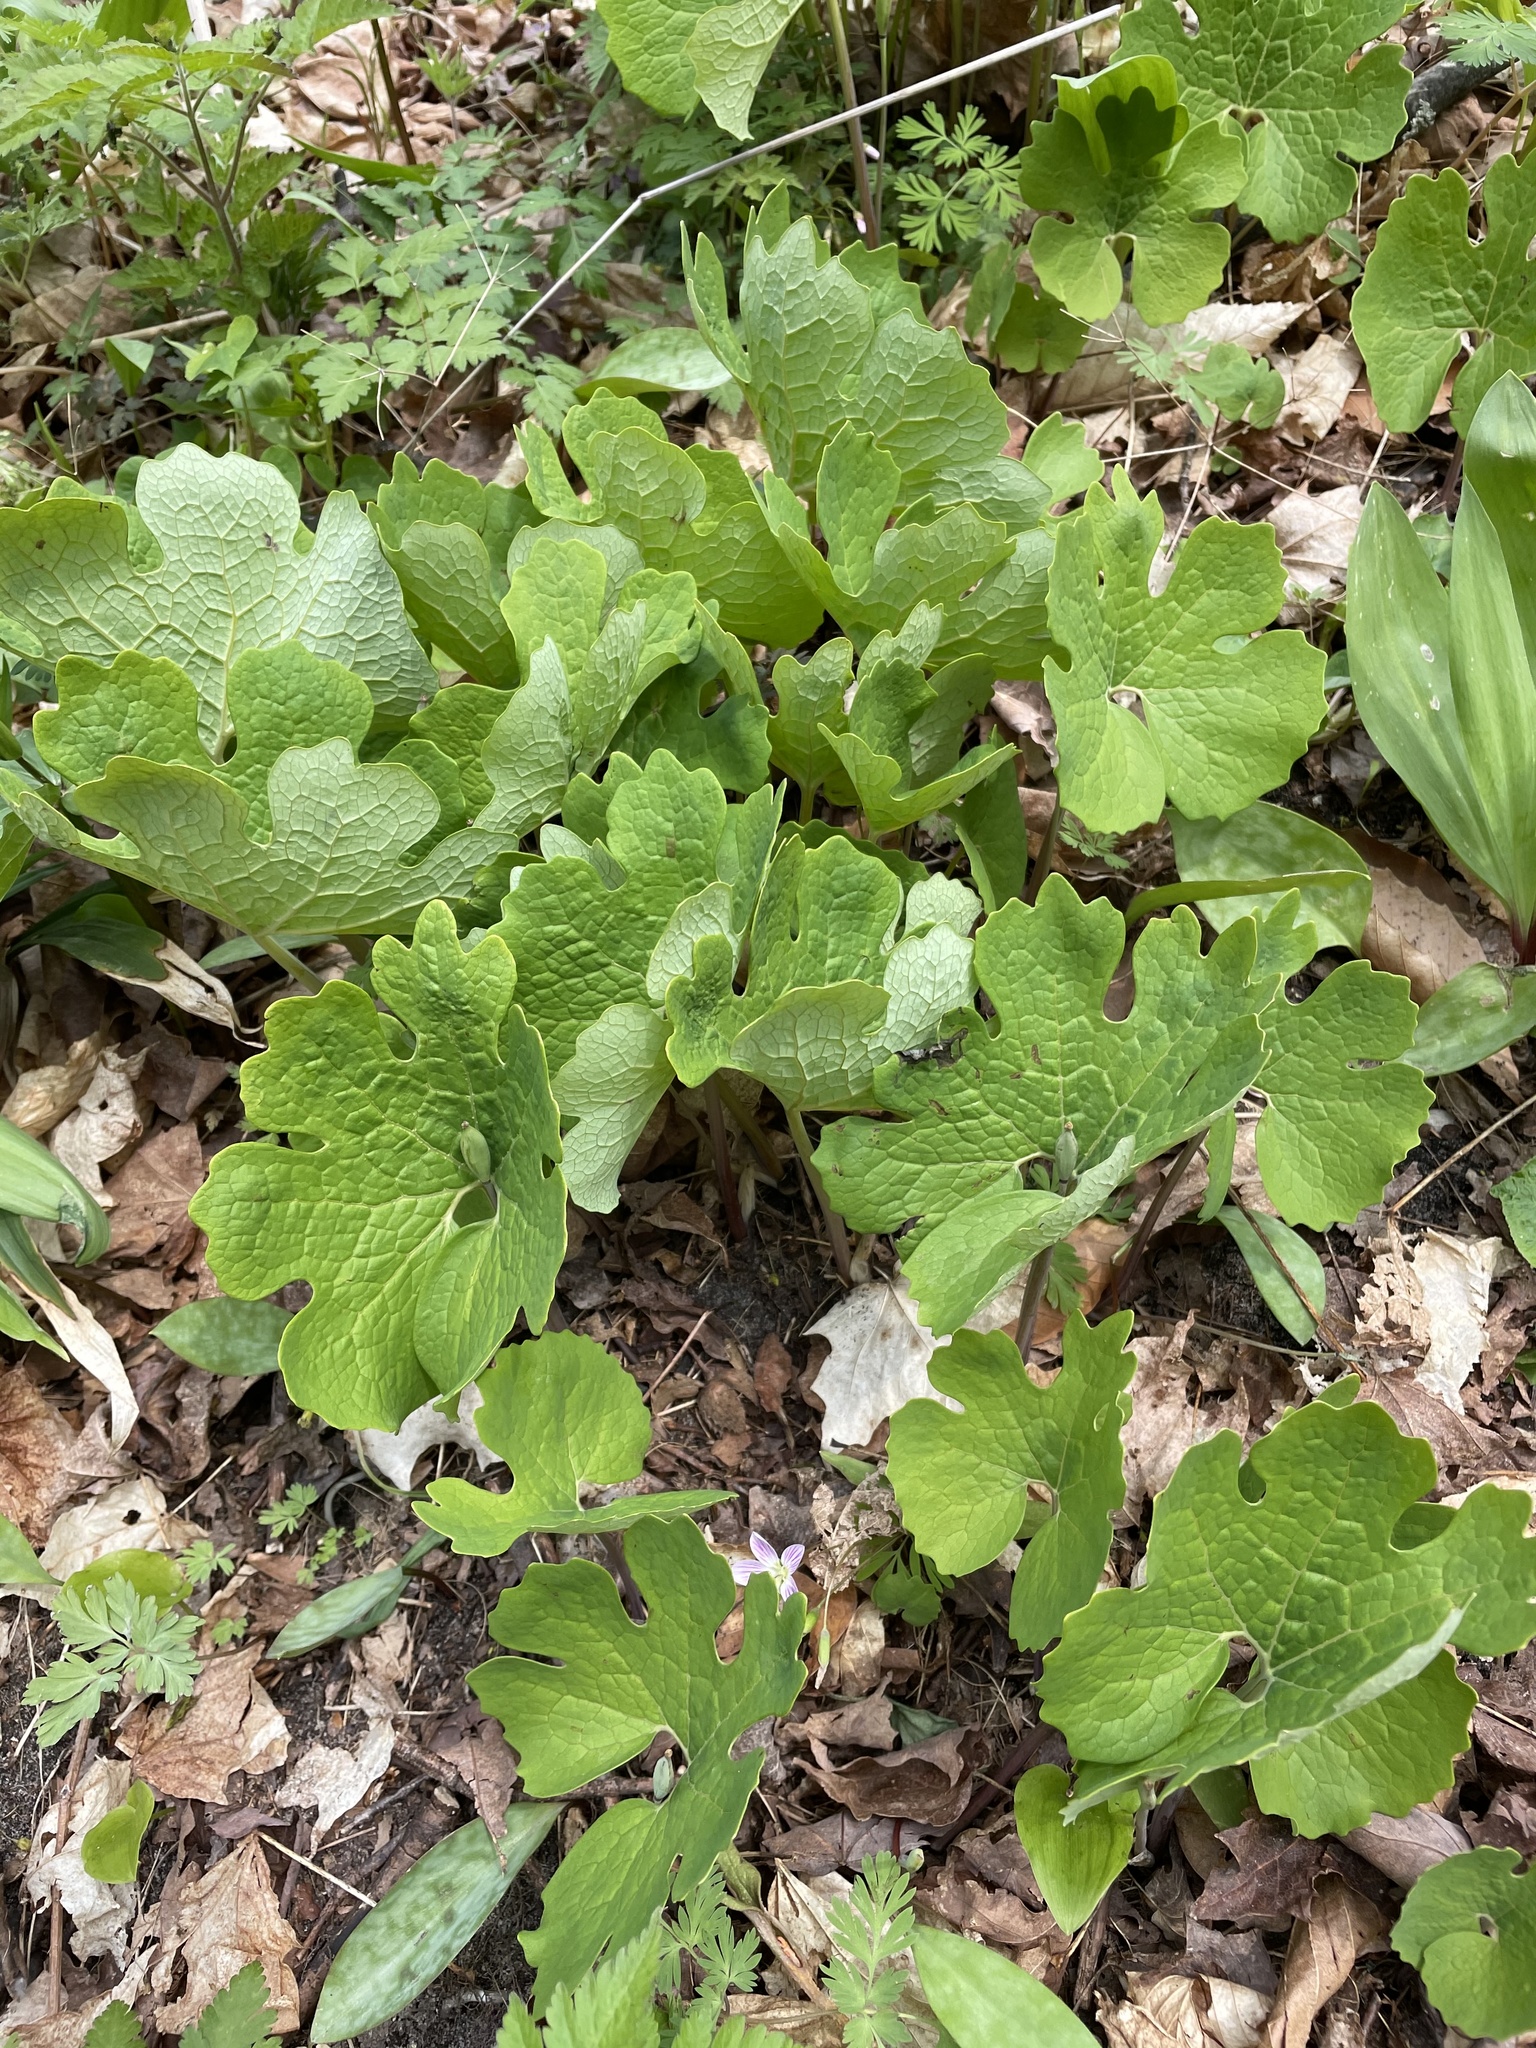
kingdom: Plantae
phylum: Tracheophyta
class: Magnoliopsida
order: Ranunculales
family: Papaveraceae
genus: Sanguinaria
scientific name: Sanguinaria canadensis
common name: Bloodroot
